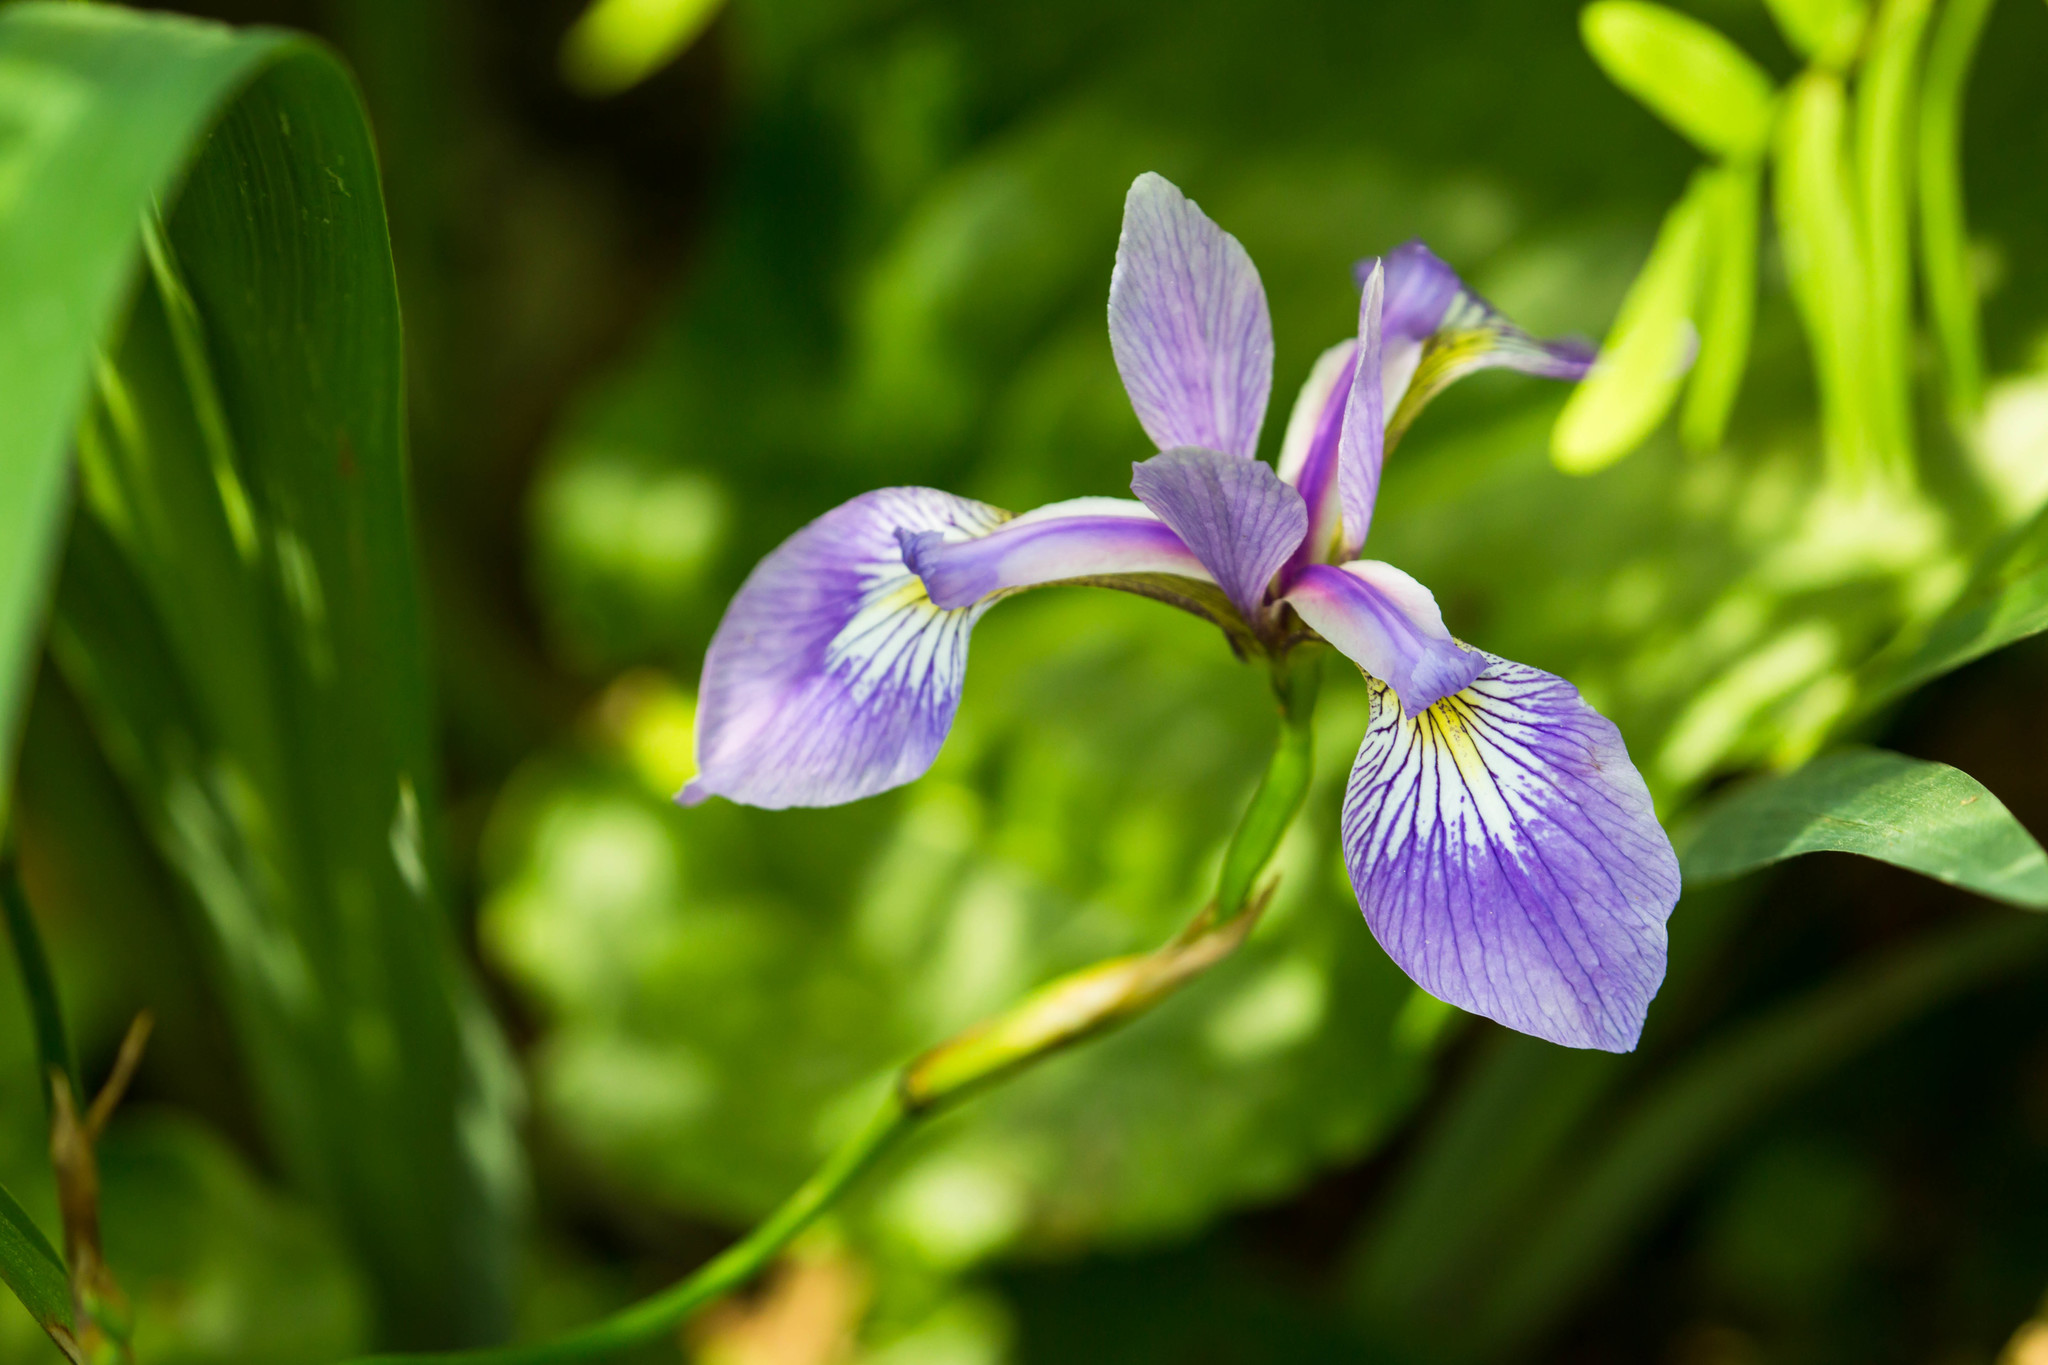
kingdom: Plantae
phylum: Tracheophyta
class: Liliopsida
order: Asparagales
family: Iridaceae
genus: Iris
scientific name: Iris versicolor
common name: Purple iris
